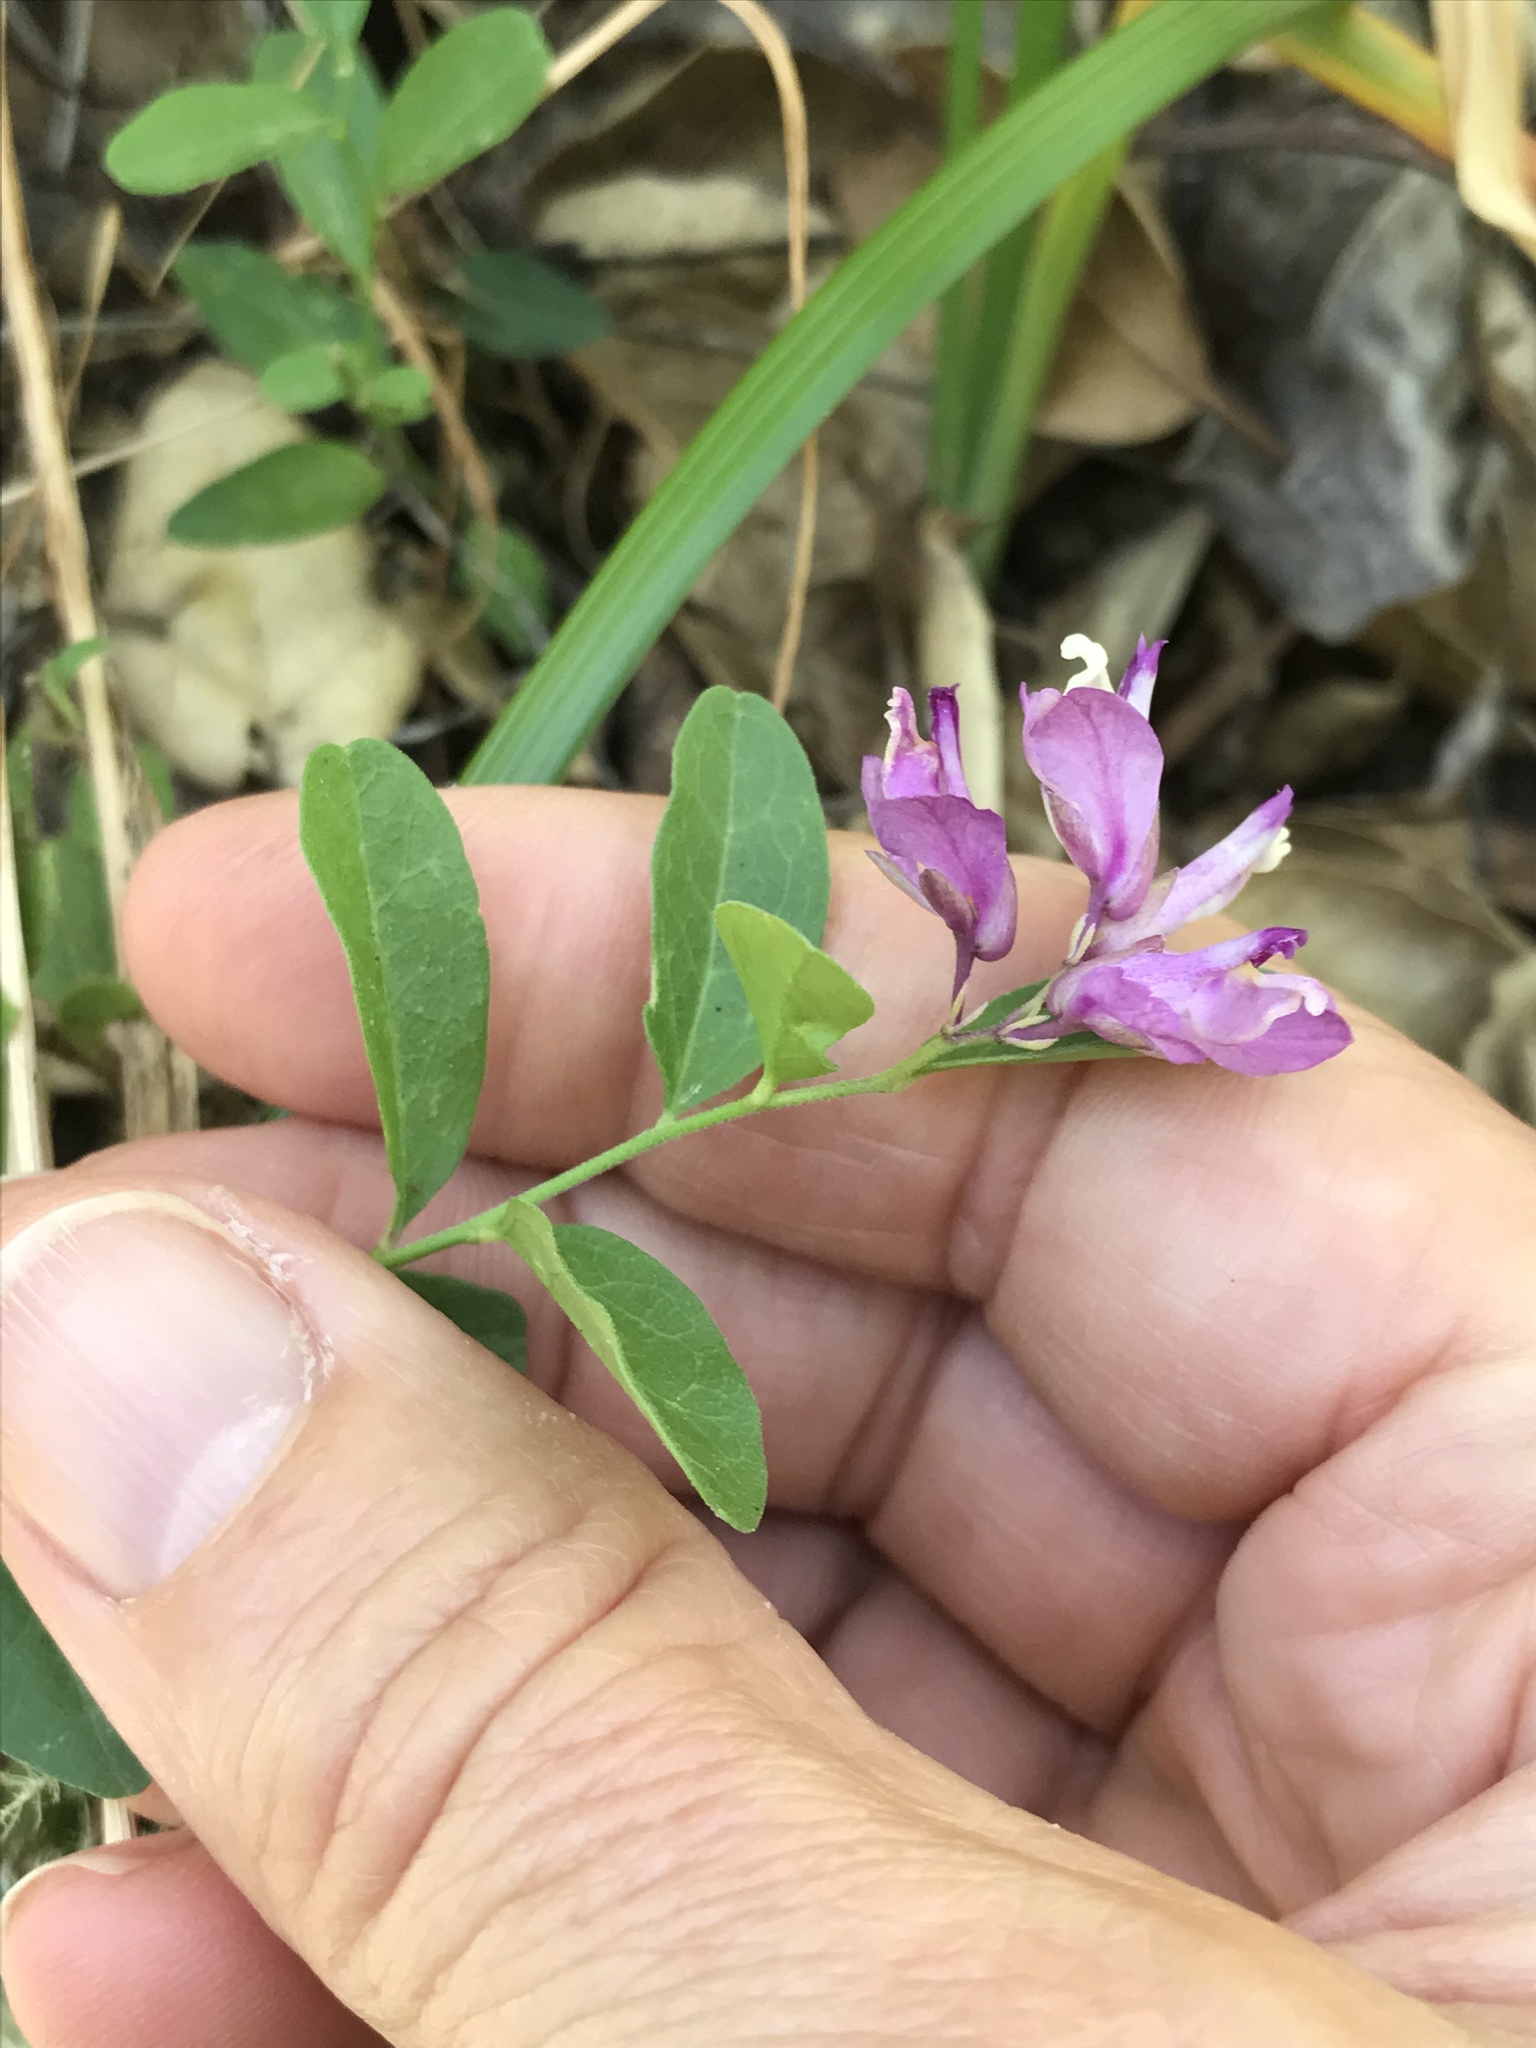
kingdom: Plantae
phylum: Tracheophyta
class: Magnoliopsida
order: Fabales
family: Polygalaceae
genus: Rhinotropis
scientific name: Rhinotropis californica
